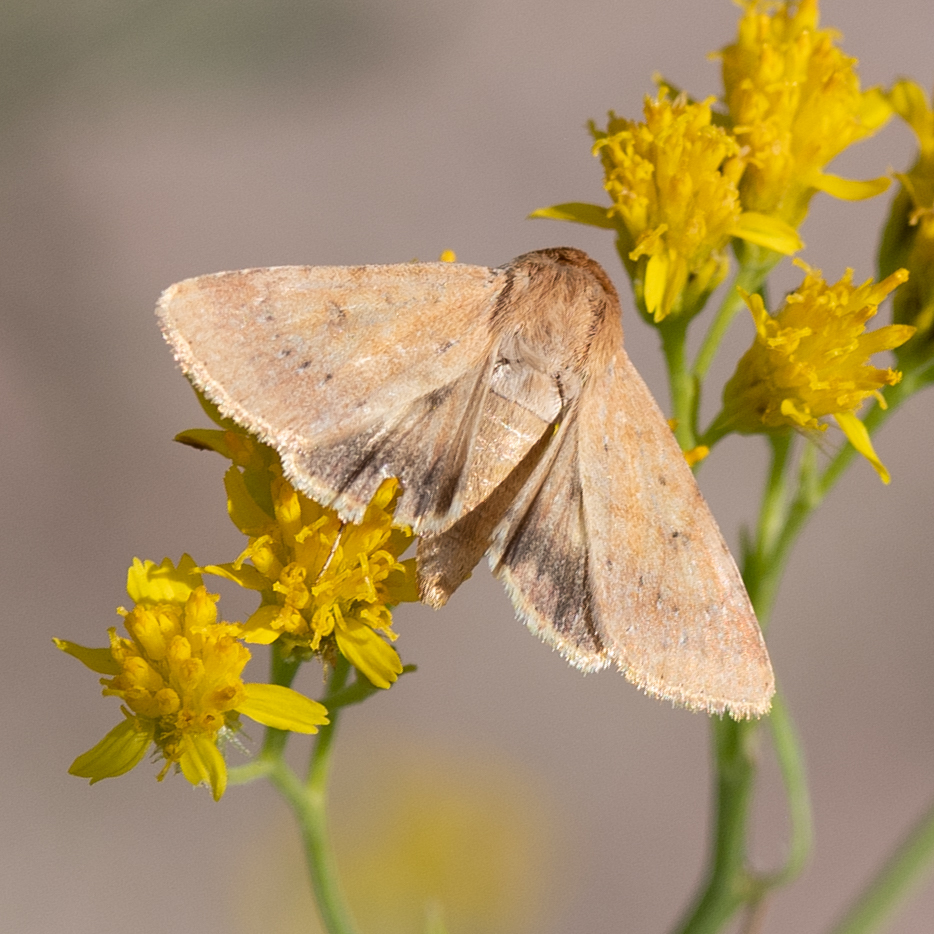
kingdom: Animalia
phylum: Arthropoda
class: Insecta
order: Lepidoptera
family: Noctuidae
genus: Helicoverpa
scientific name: Helicoverpa zea
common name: Bollworm
